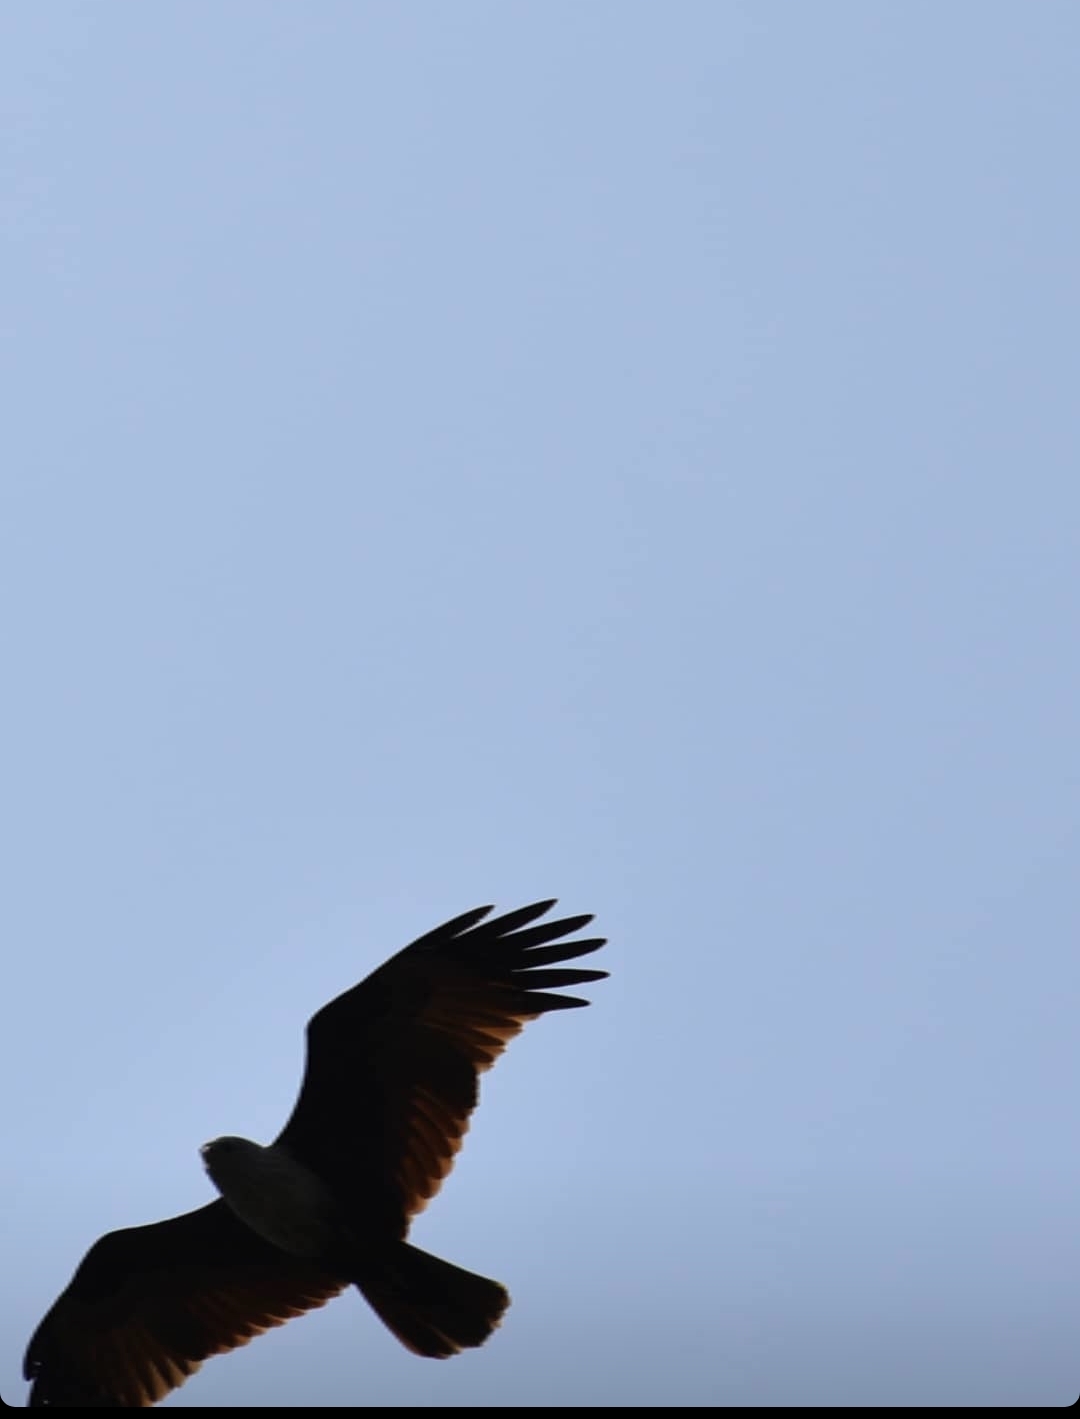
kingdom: Animalia
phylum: Chordata
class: Aves
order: Accipitriformes
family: Accipitridae
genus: Haliastur
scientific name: Haliastur indus
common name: Brahminy kite
